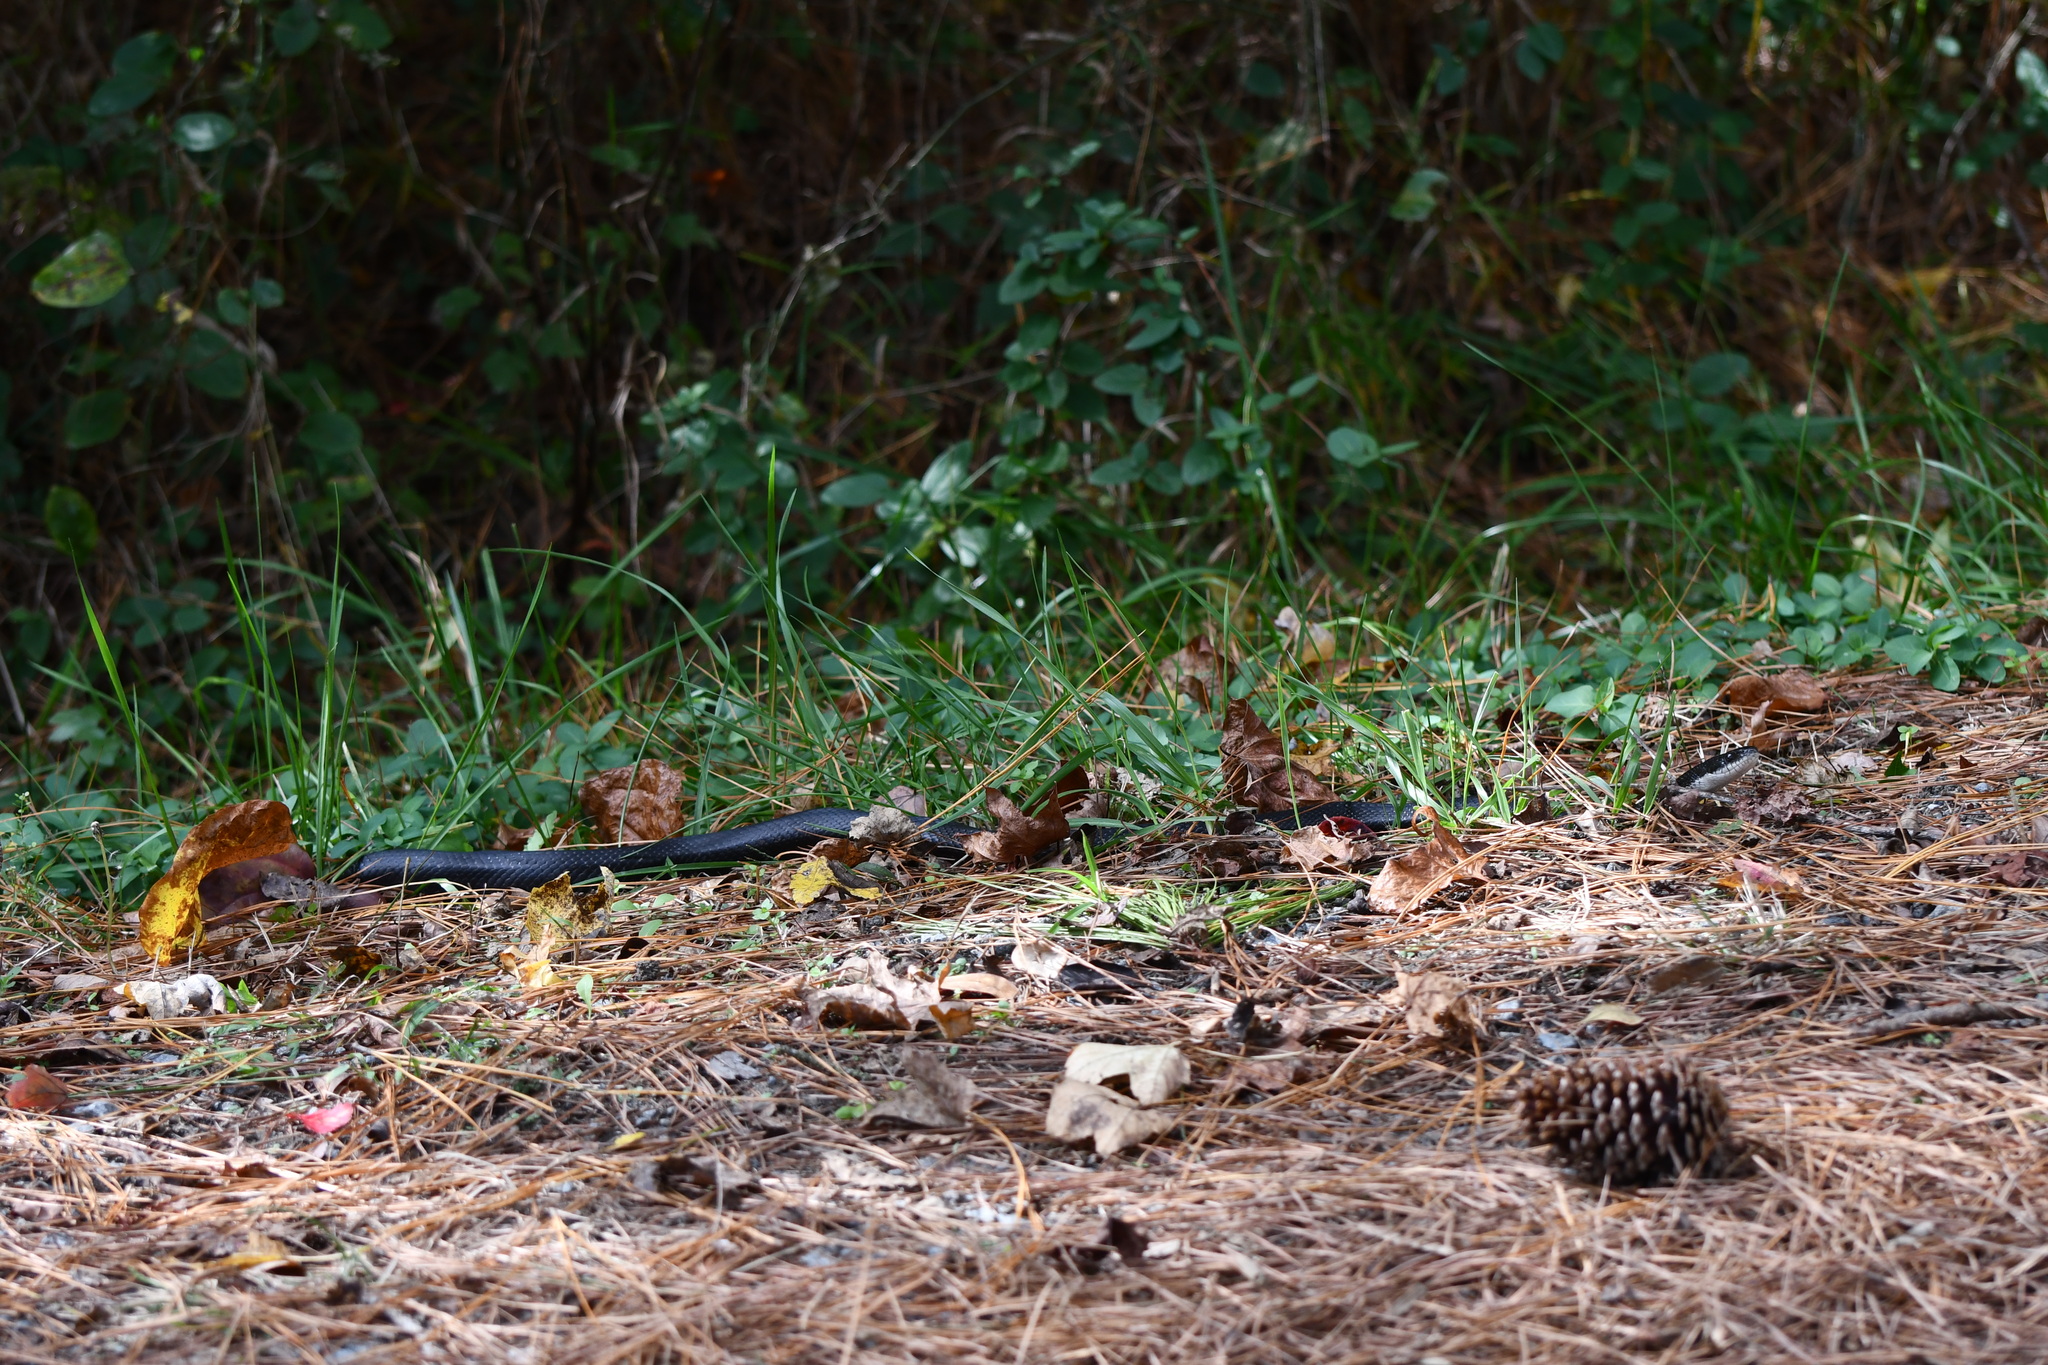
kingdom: Animalia
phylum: Chordata
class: Squamata
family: Colubridae
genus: Pantherophis
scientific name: Pantherophis
